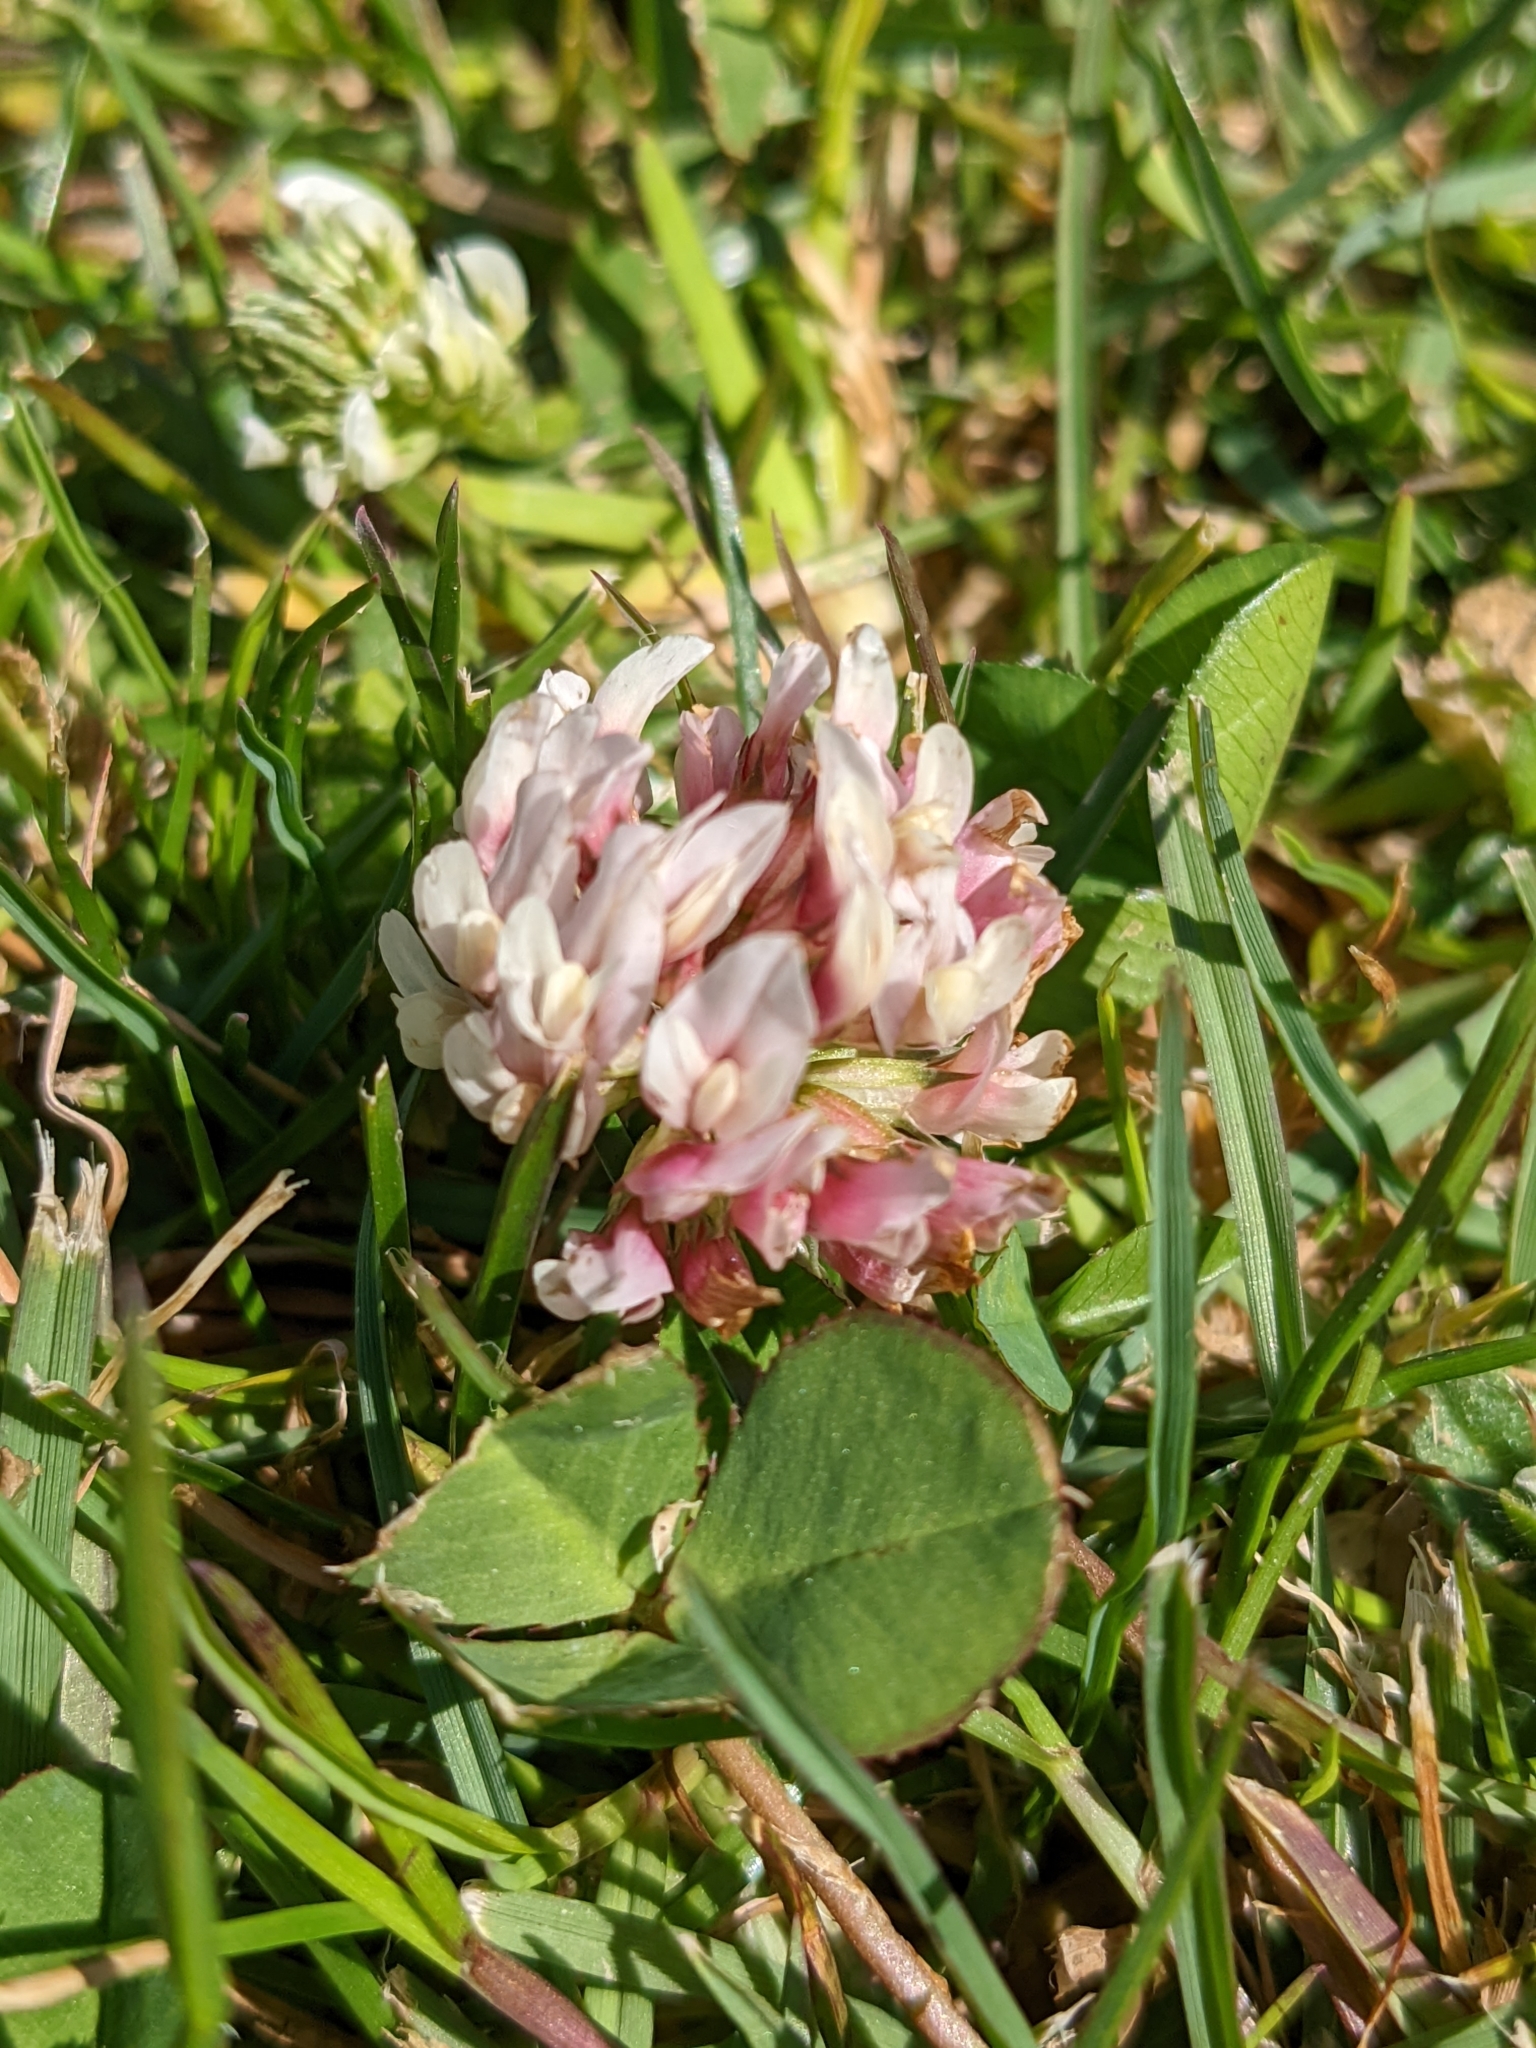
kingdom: Plantae
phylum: Tracheophyta
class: Magnoliopsida
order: Fabales
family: Fabaceae
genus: Trifolium
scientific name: Trifolium repens
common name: White clover
